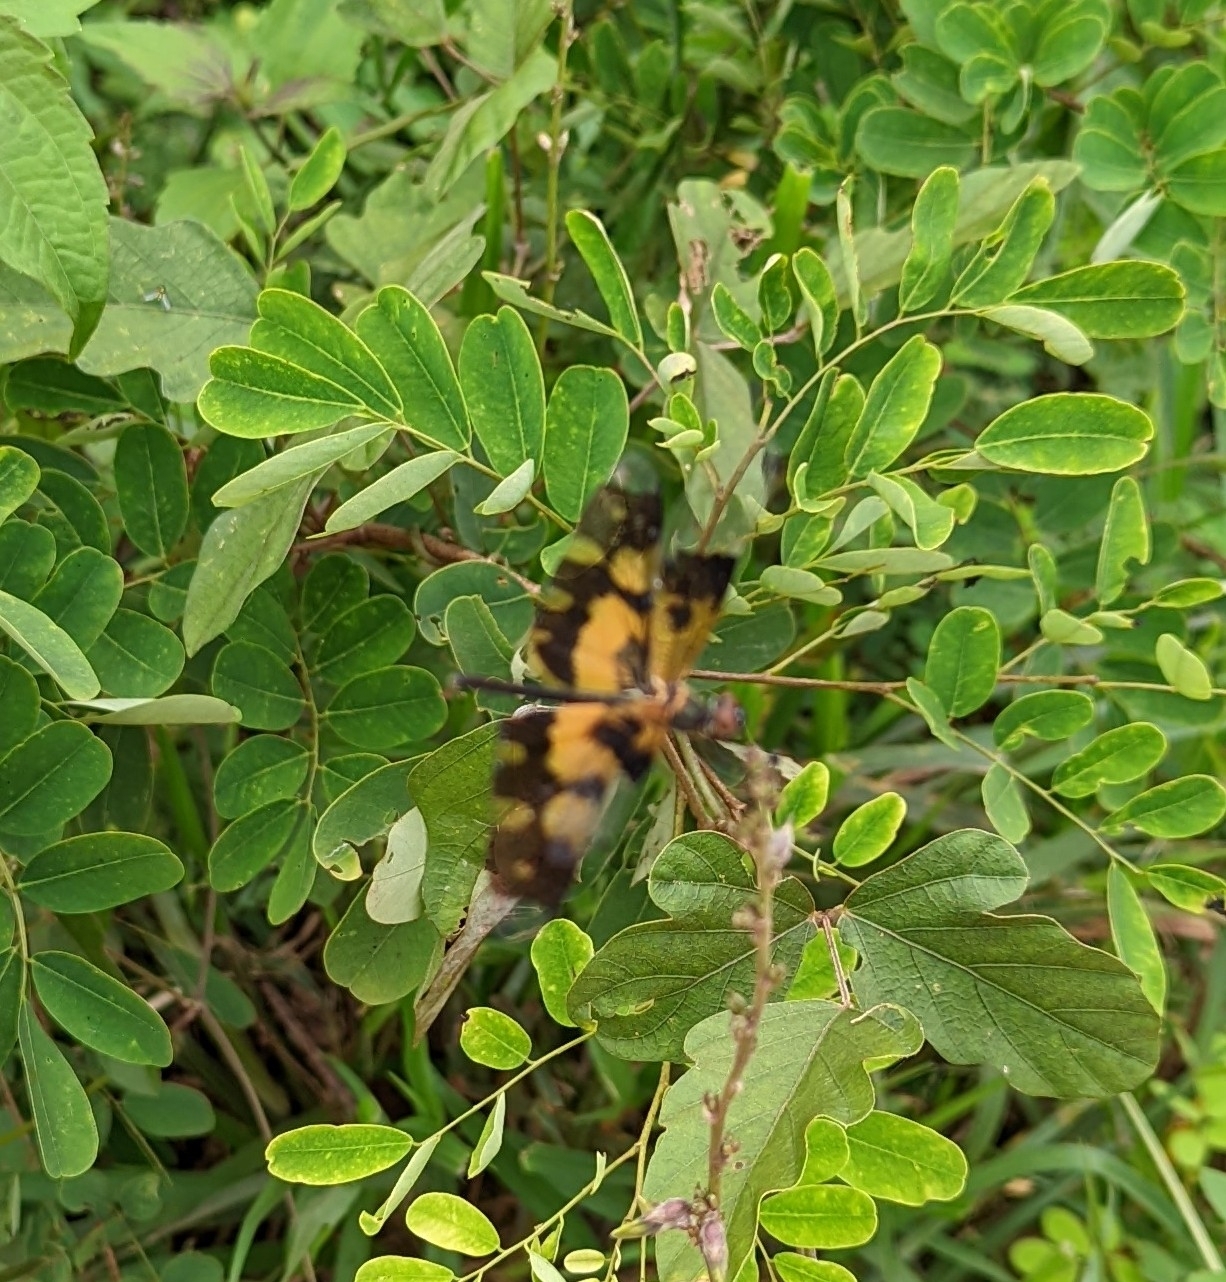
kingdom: Animalia
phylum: Arthropoda
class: Insecta
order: Odonata
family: Libellulidae
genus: Rhyothemis
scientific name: Rhyothemis variegata
